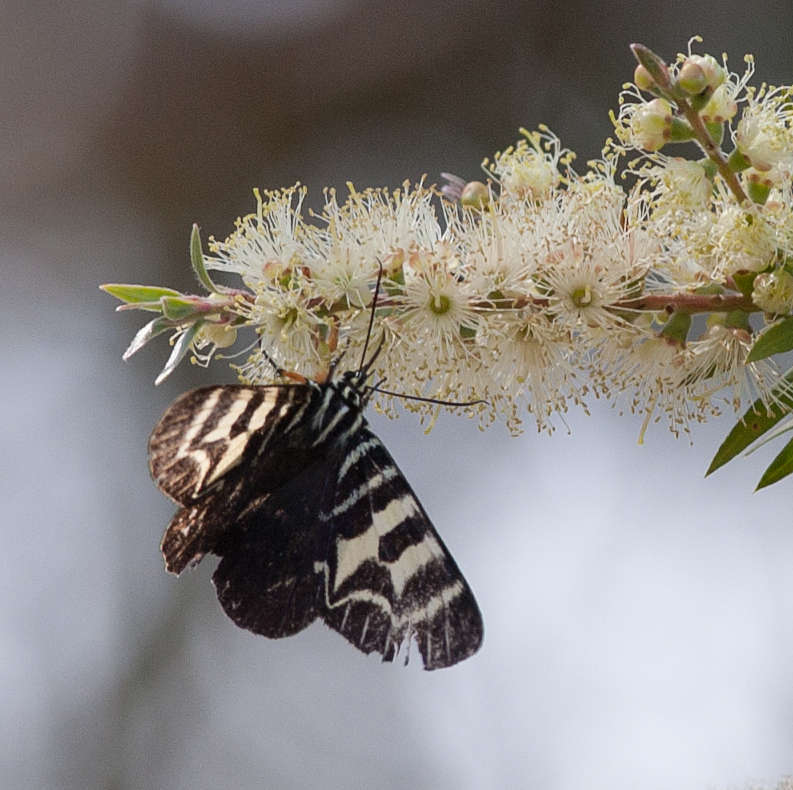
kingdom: Animalia
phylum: Arthropoda
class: Insecta
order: Lepidoptera
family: Noctuidae
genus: Comocrus
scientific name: Comocrus behri
